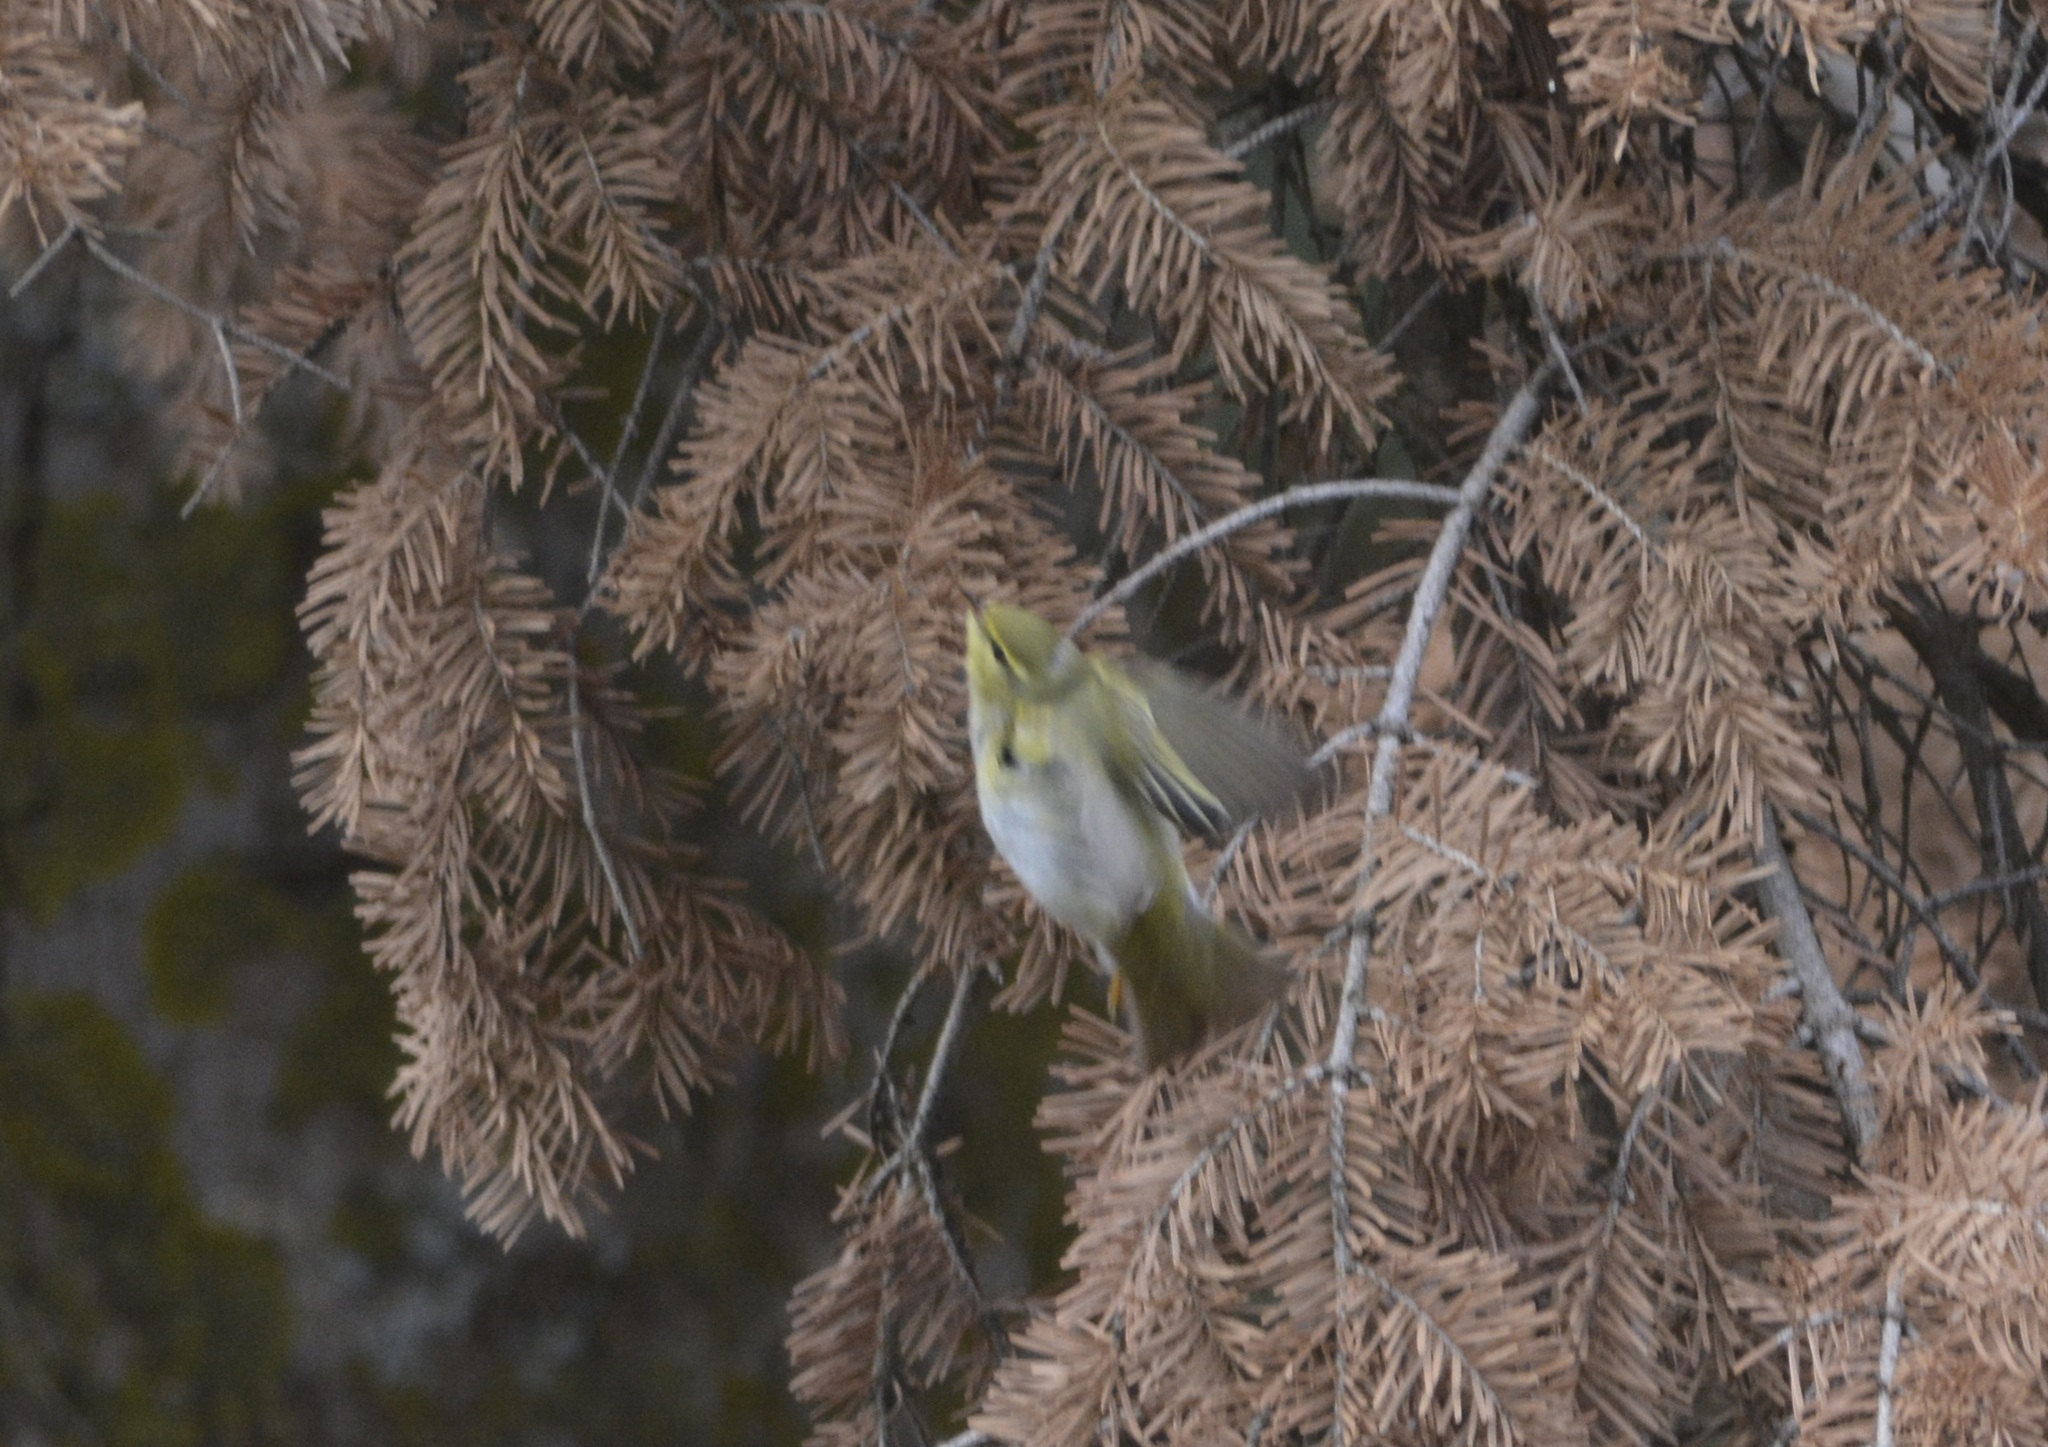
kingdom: Animalia
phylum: Chordata
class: Aves
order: Passeriformes
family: Phylloscopidae
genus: Phylloscopus
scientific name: Phylloscopus sibillatrix
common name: Wood warbler
